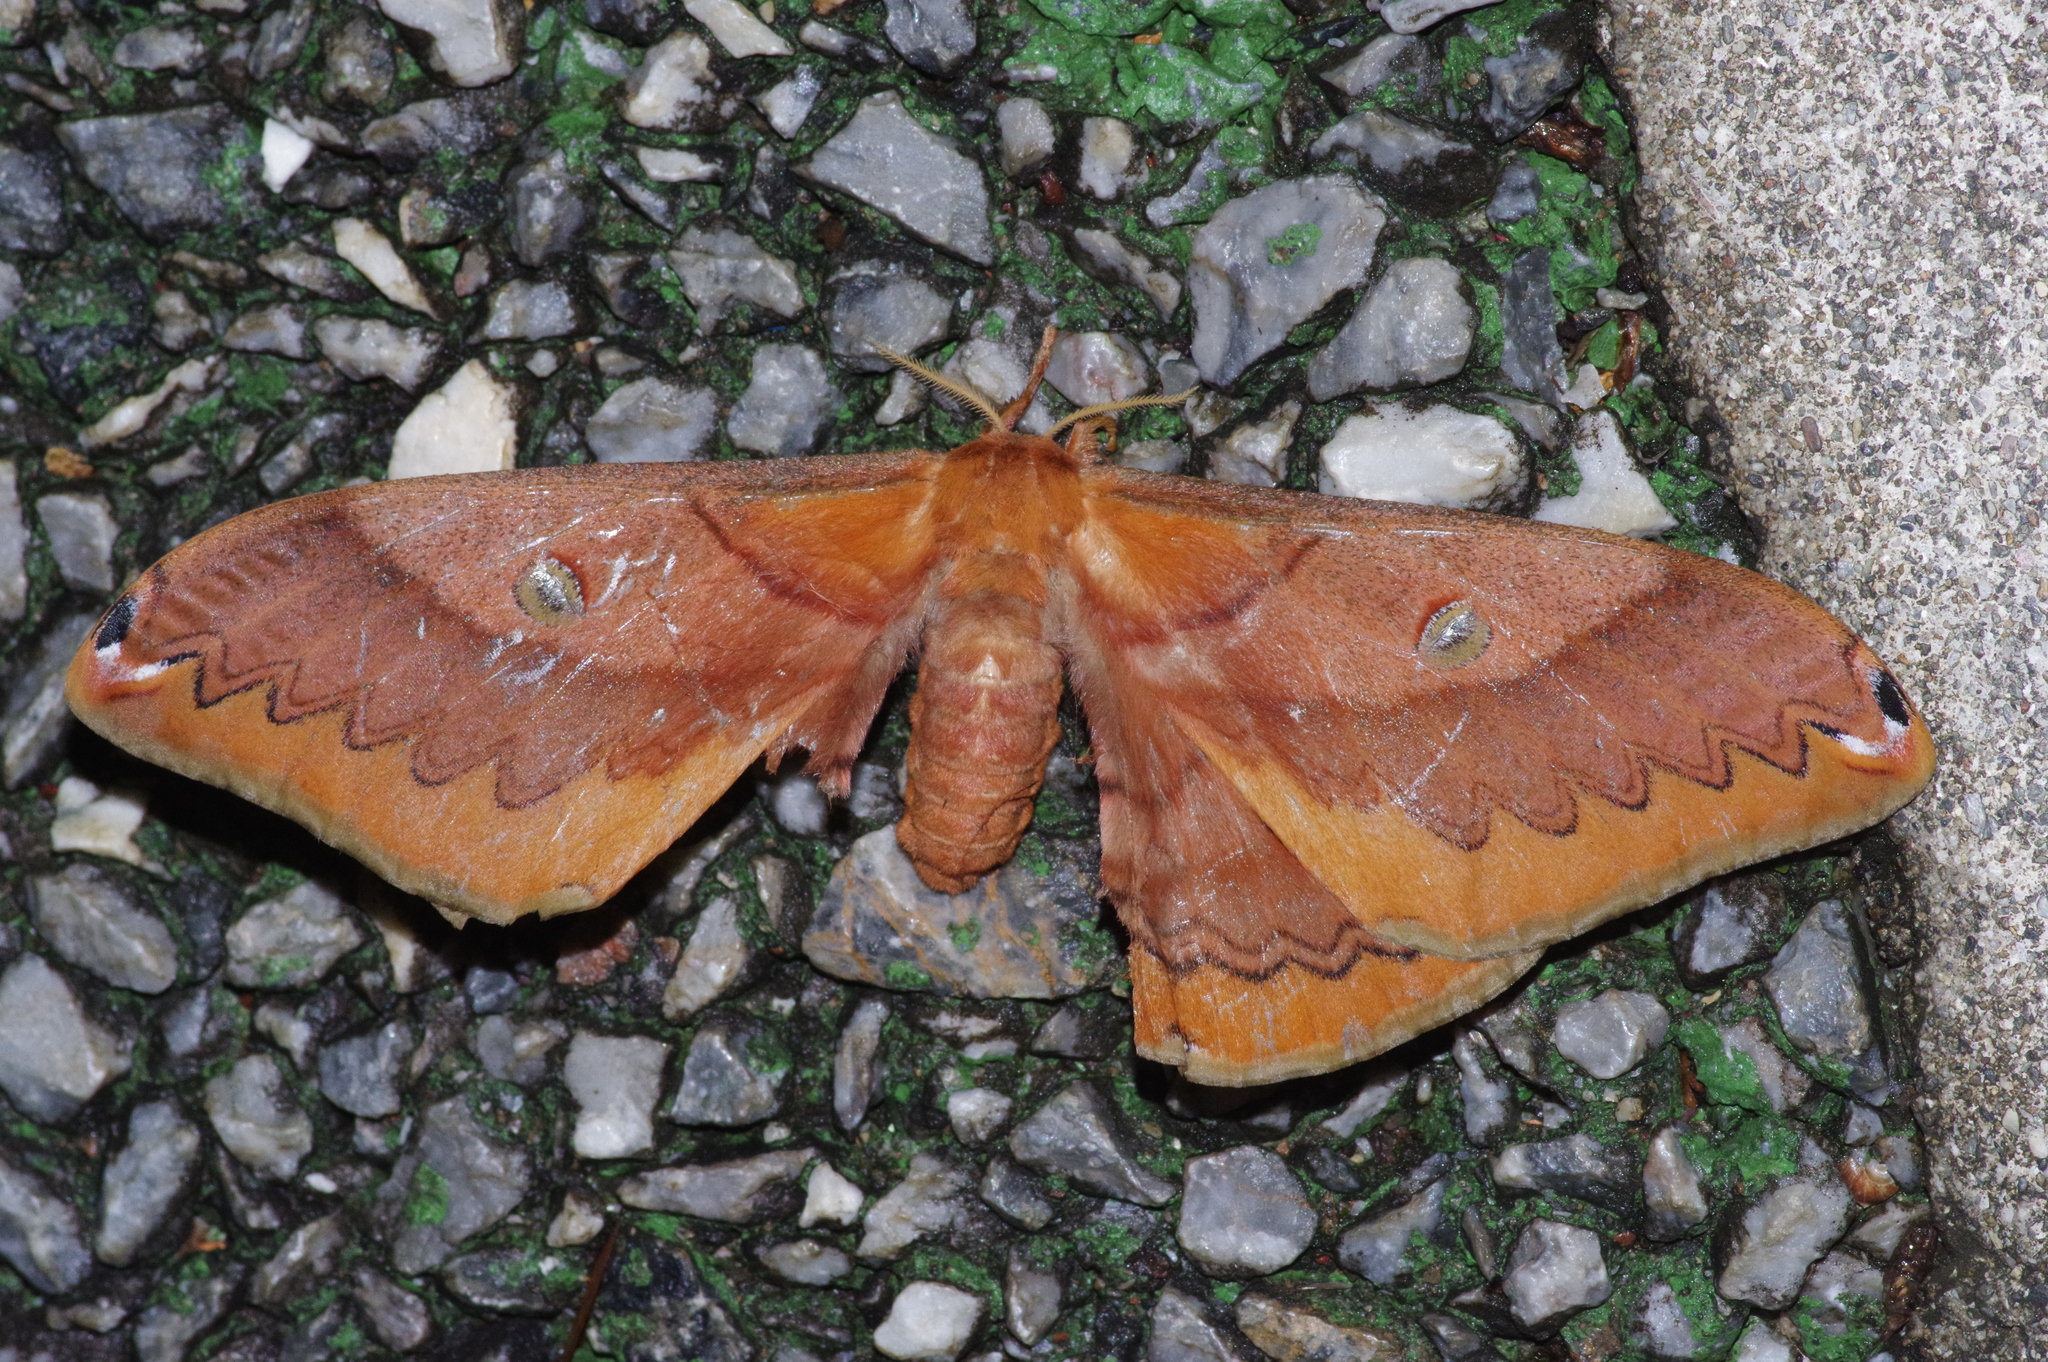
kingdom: Animalia
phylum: Arthropoda
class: Insecta
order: Lepidoptera
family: Saturniidae
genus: Saturnia
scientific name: Saturnia japonica
